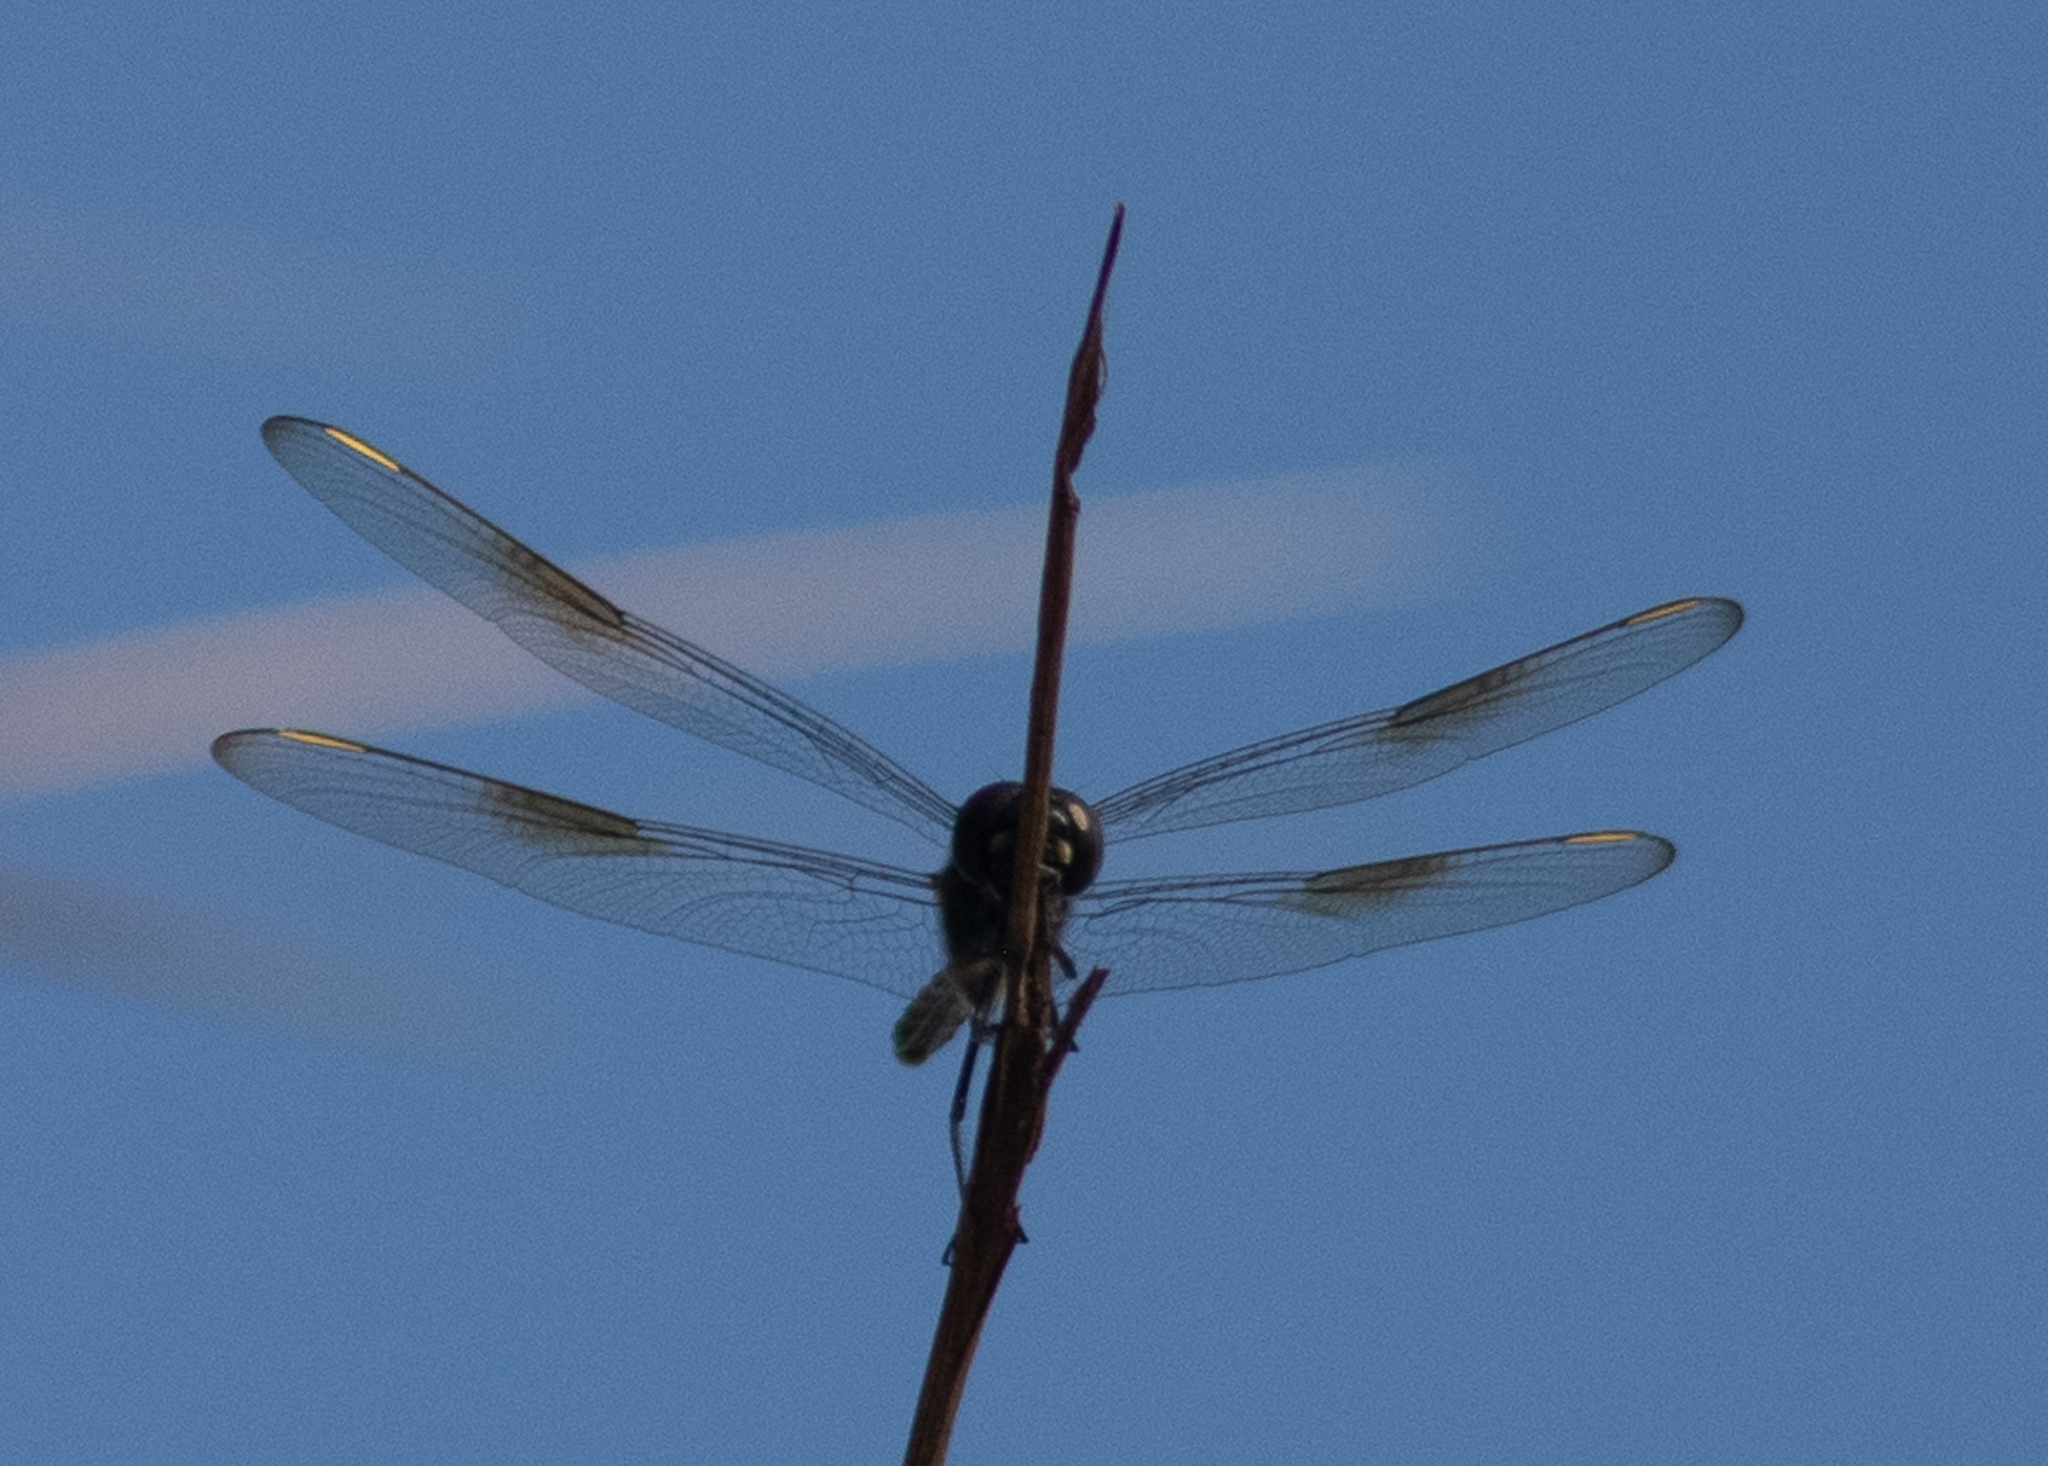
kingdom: Animalia
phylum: Arthropoda
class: Insecta
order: Odonata
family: Libellulidae
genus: Brachymesia
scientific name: Brachymesia gravida
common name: Four-spotted pennant
